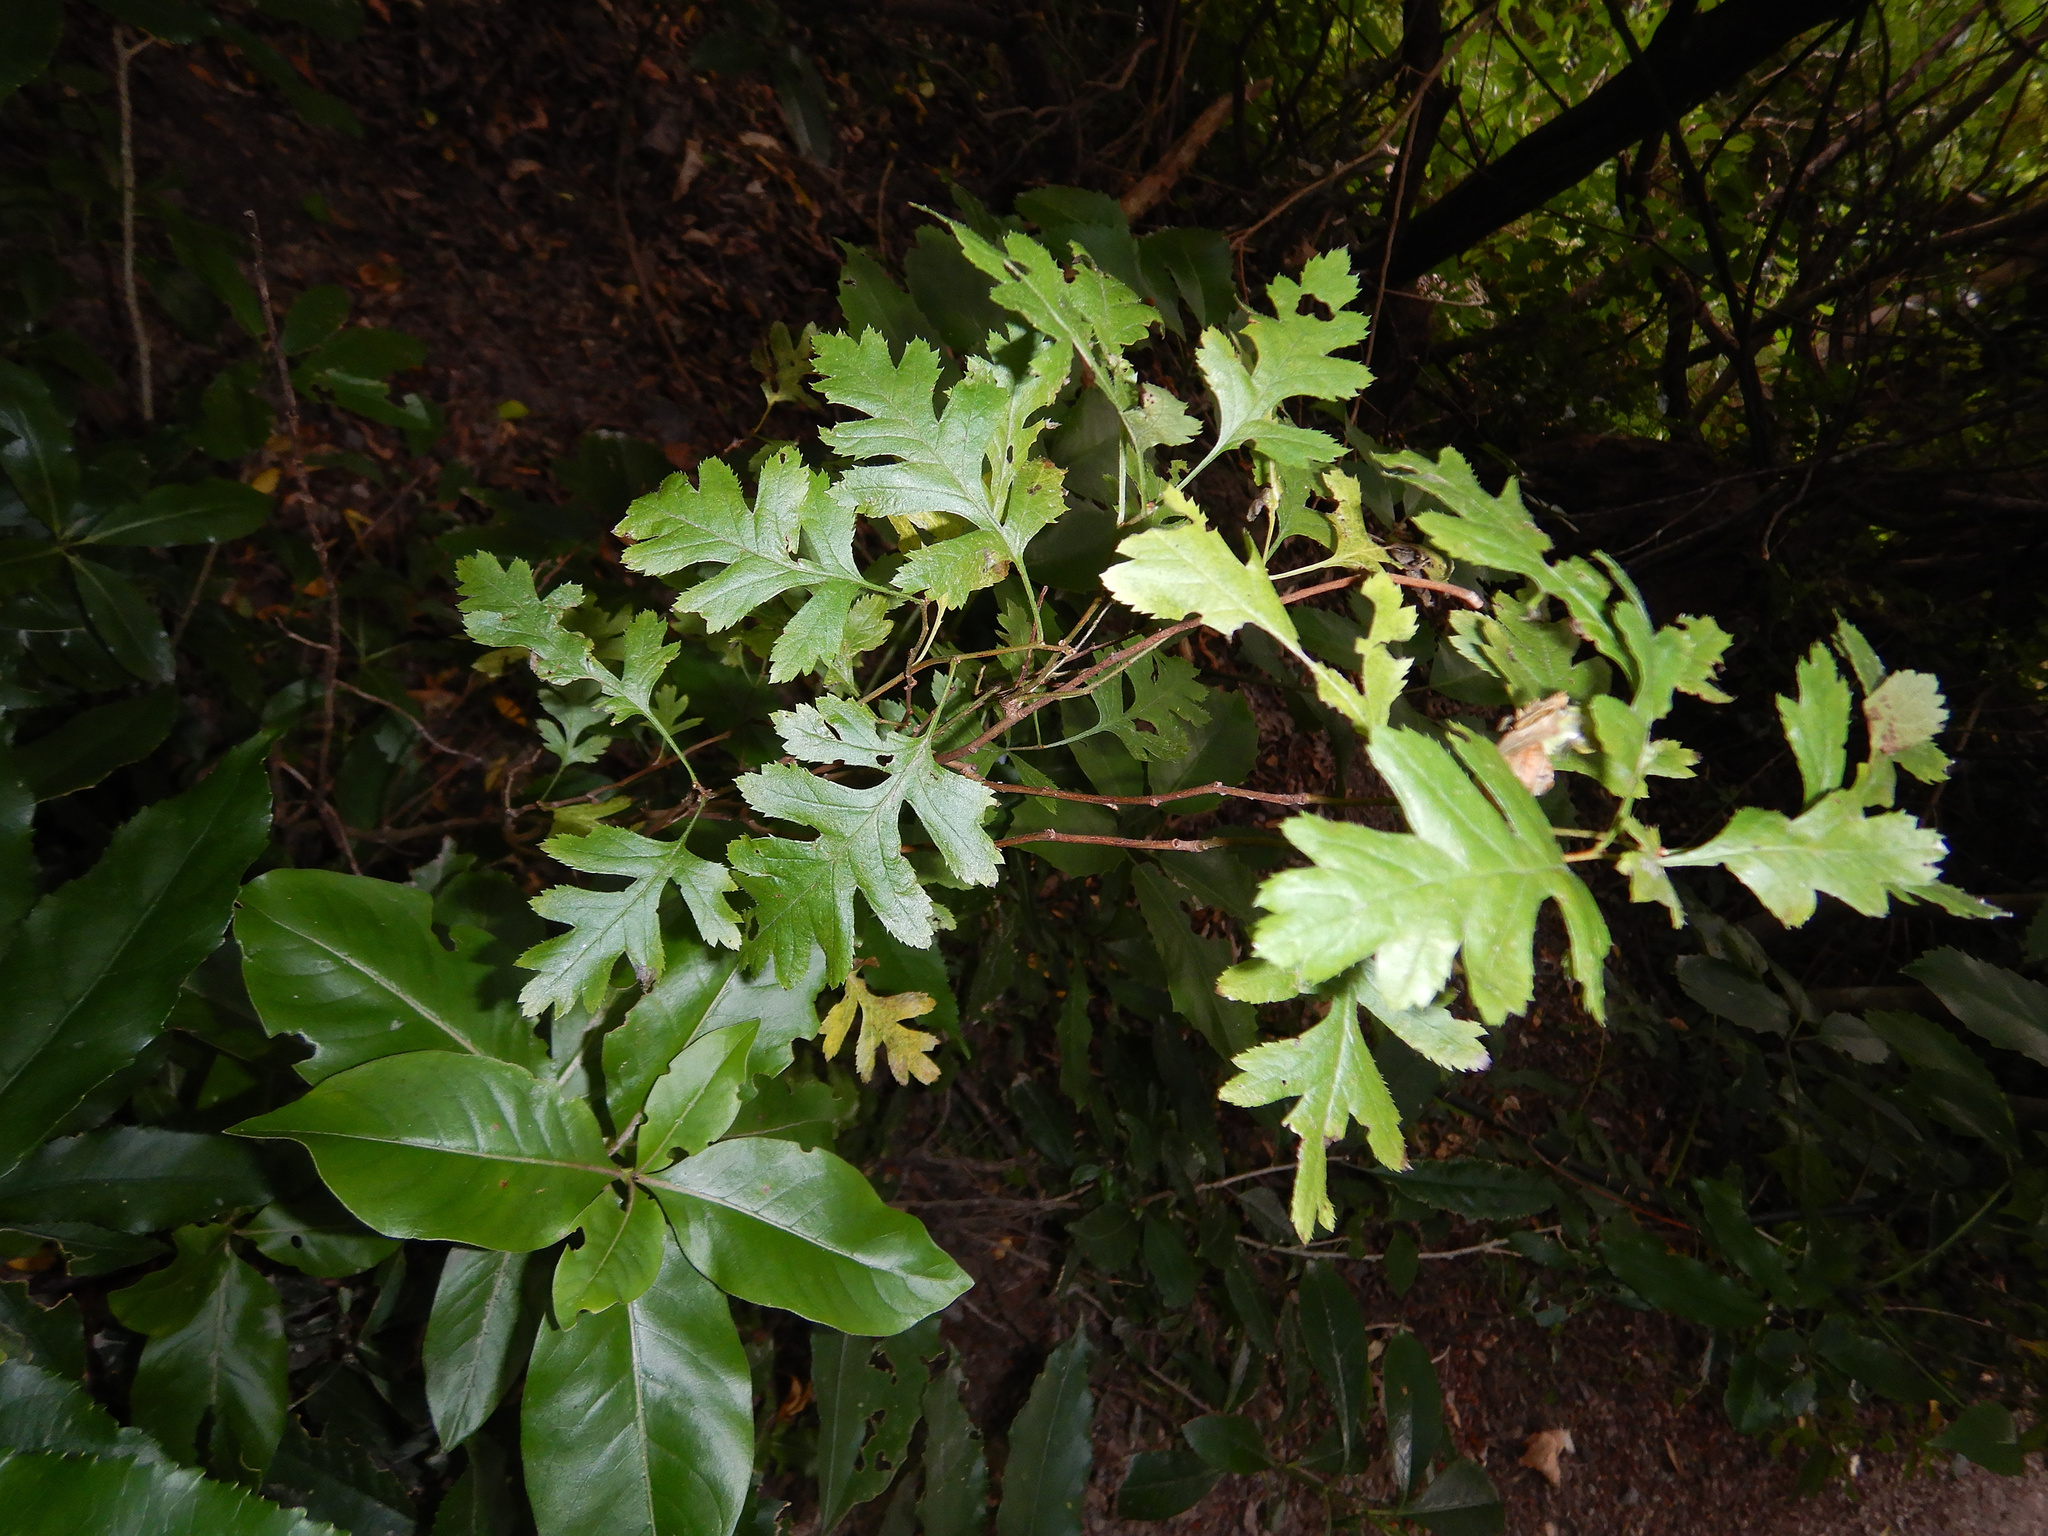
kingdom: Plantae
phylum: Tracheophyta
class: Magnoliopsida
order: Rosales
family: Rosaceae
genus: Crataegus
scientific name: Crataegus monogyna
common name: Hawthorn
